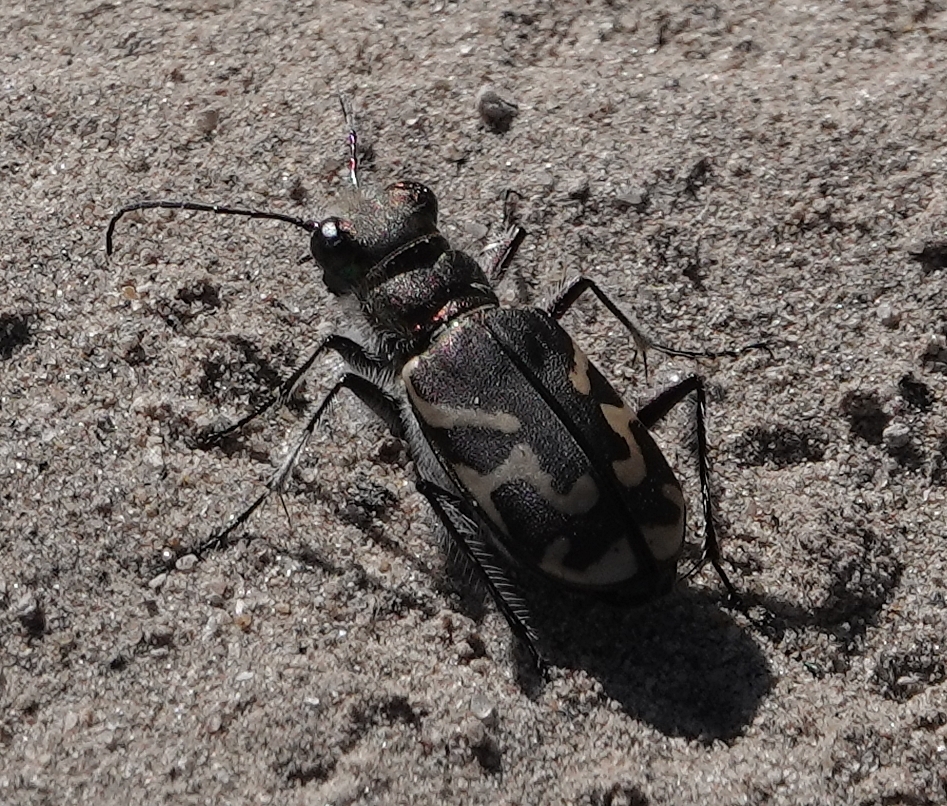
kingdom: Animalia
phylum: Arthropoda
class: Insecta
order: Coleoptera
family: Carabidae
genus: Cicindela
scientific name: Cicindela tranquebarica
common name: Oblique-lined tiger beetle
